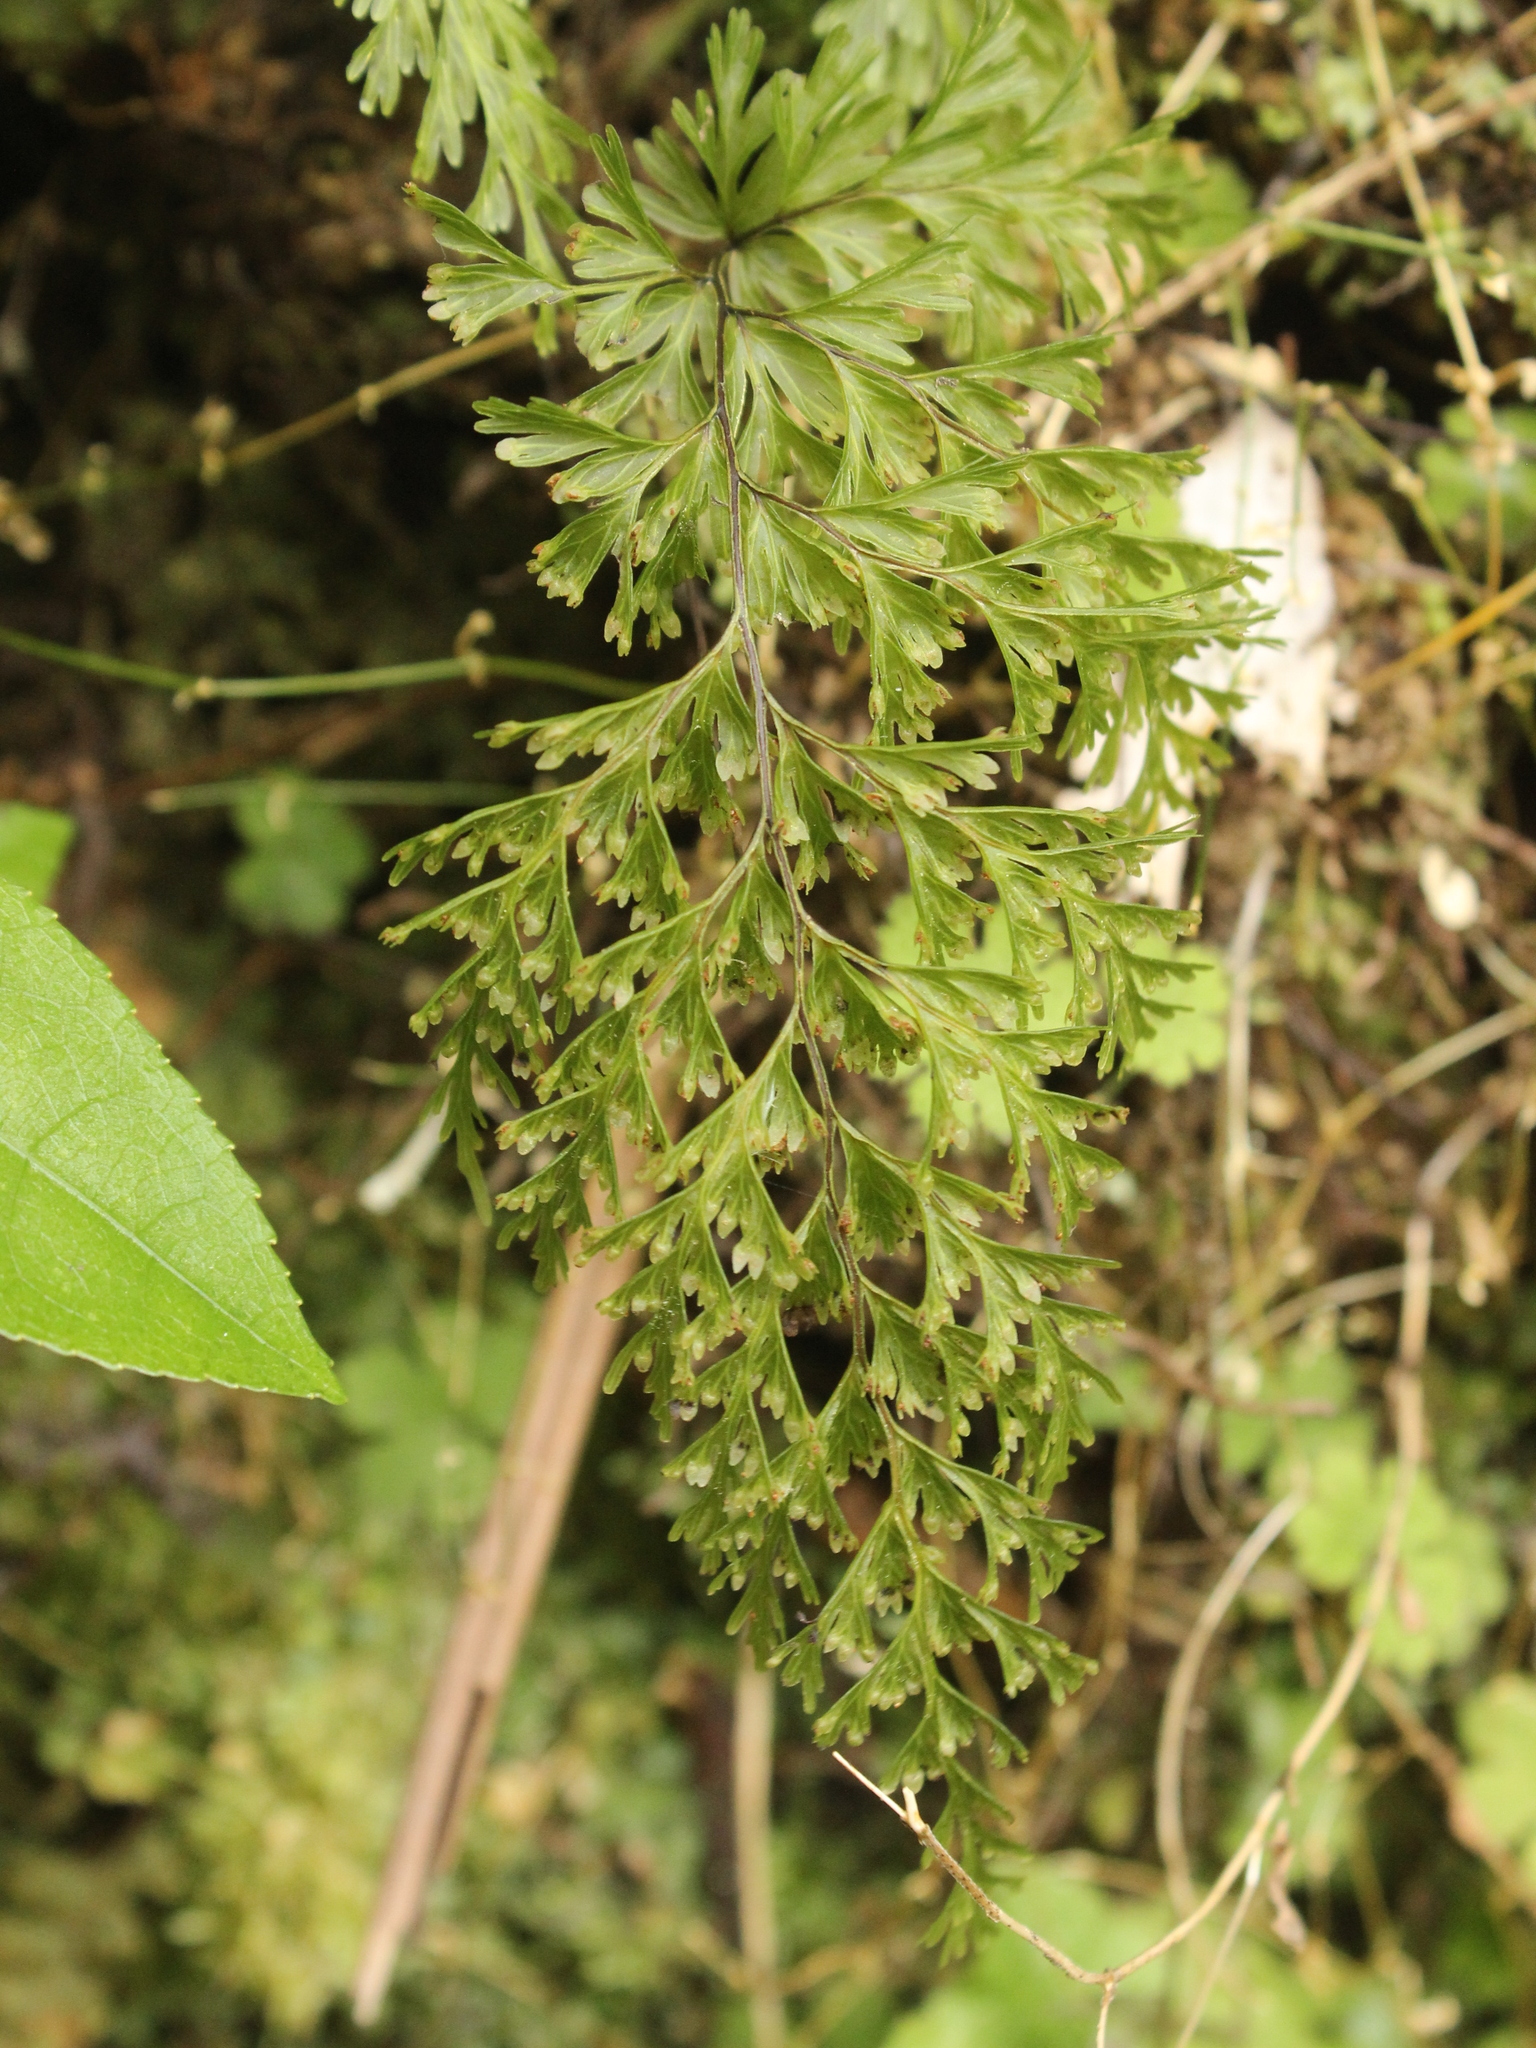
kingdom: Plantae
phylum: Tracheophyta
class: Polypodiopsida
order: Hymenophyllales
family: Hymenophyllaceae
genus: Hymenophyllum
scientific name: Hymenophyllum demissum
